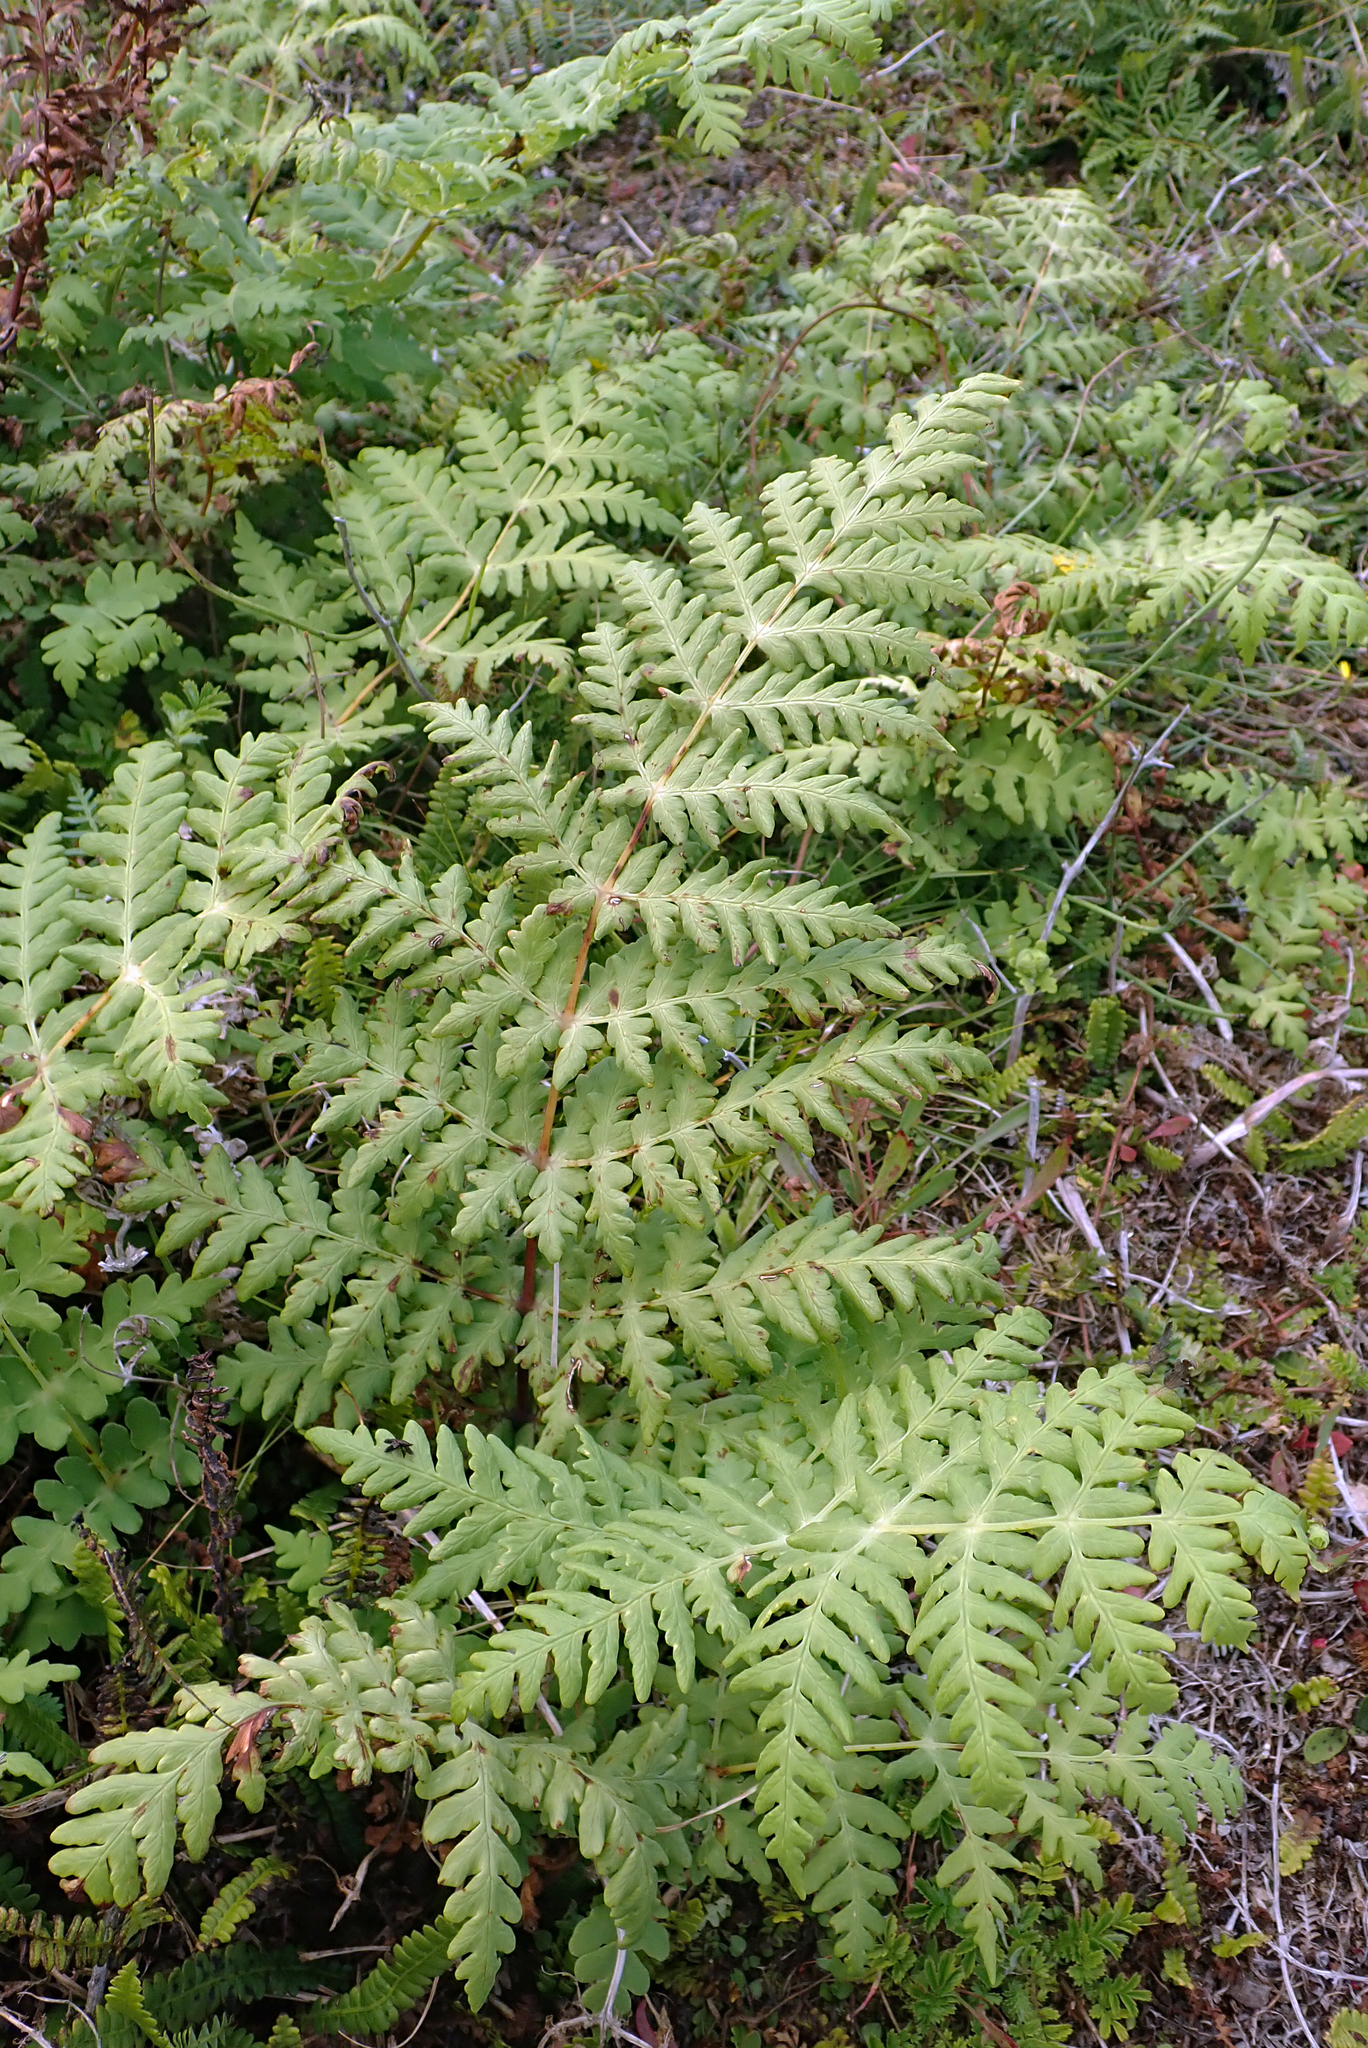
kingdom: Plantae
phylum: Tracheophyta
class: Polypodiopsida
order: Polypodiales
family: Dennstaedtiaceae
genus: Histiopteris
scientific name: Histiopteris incisa
